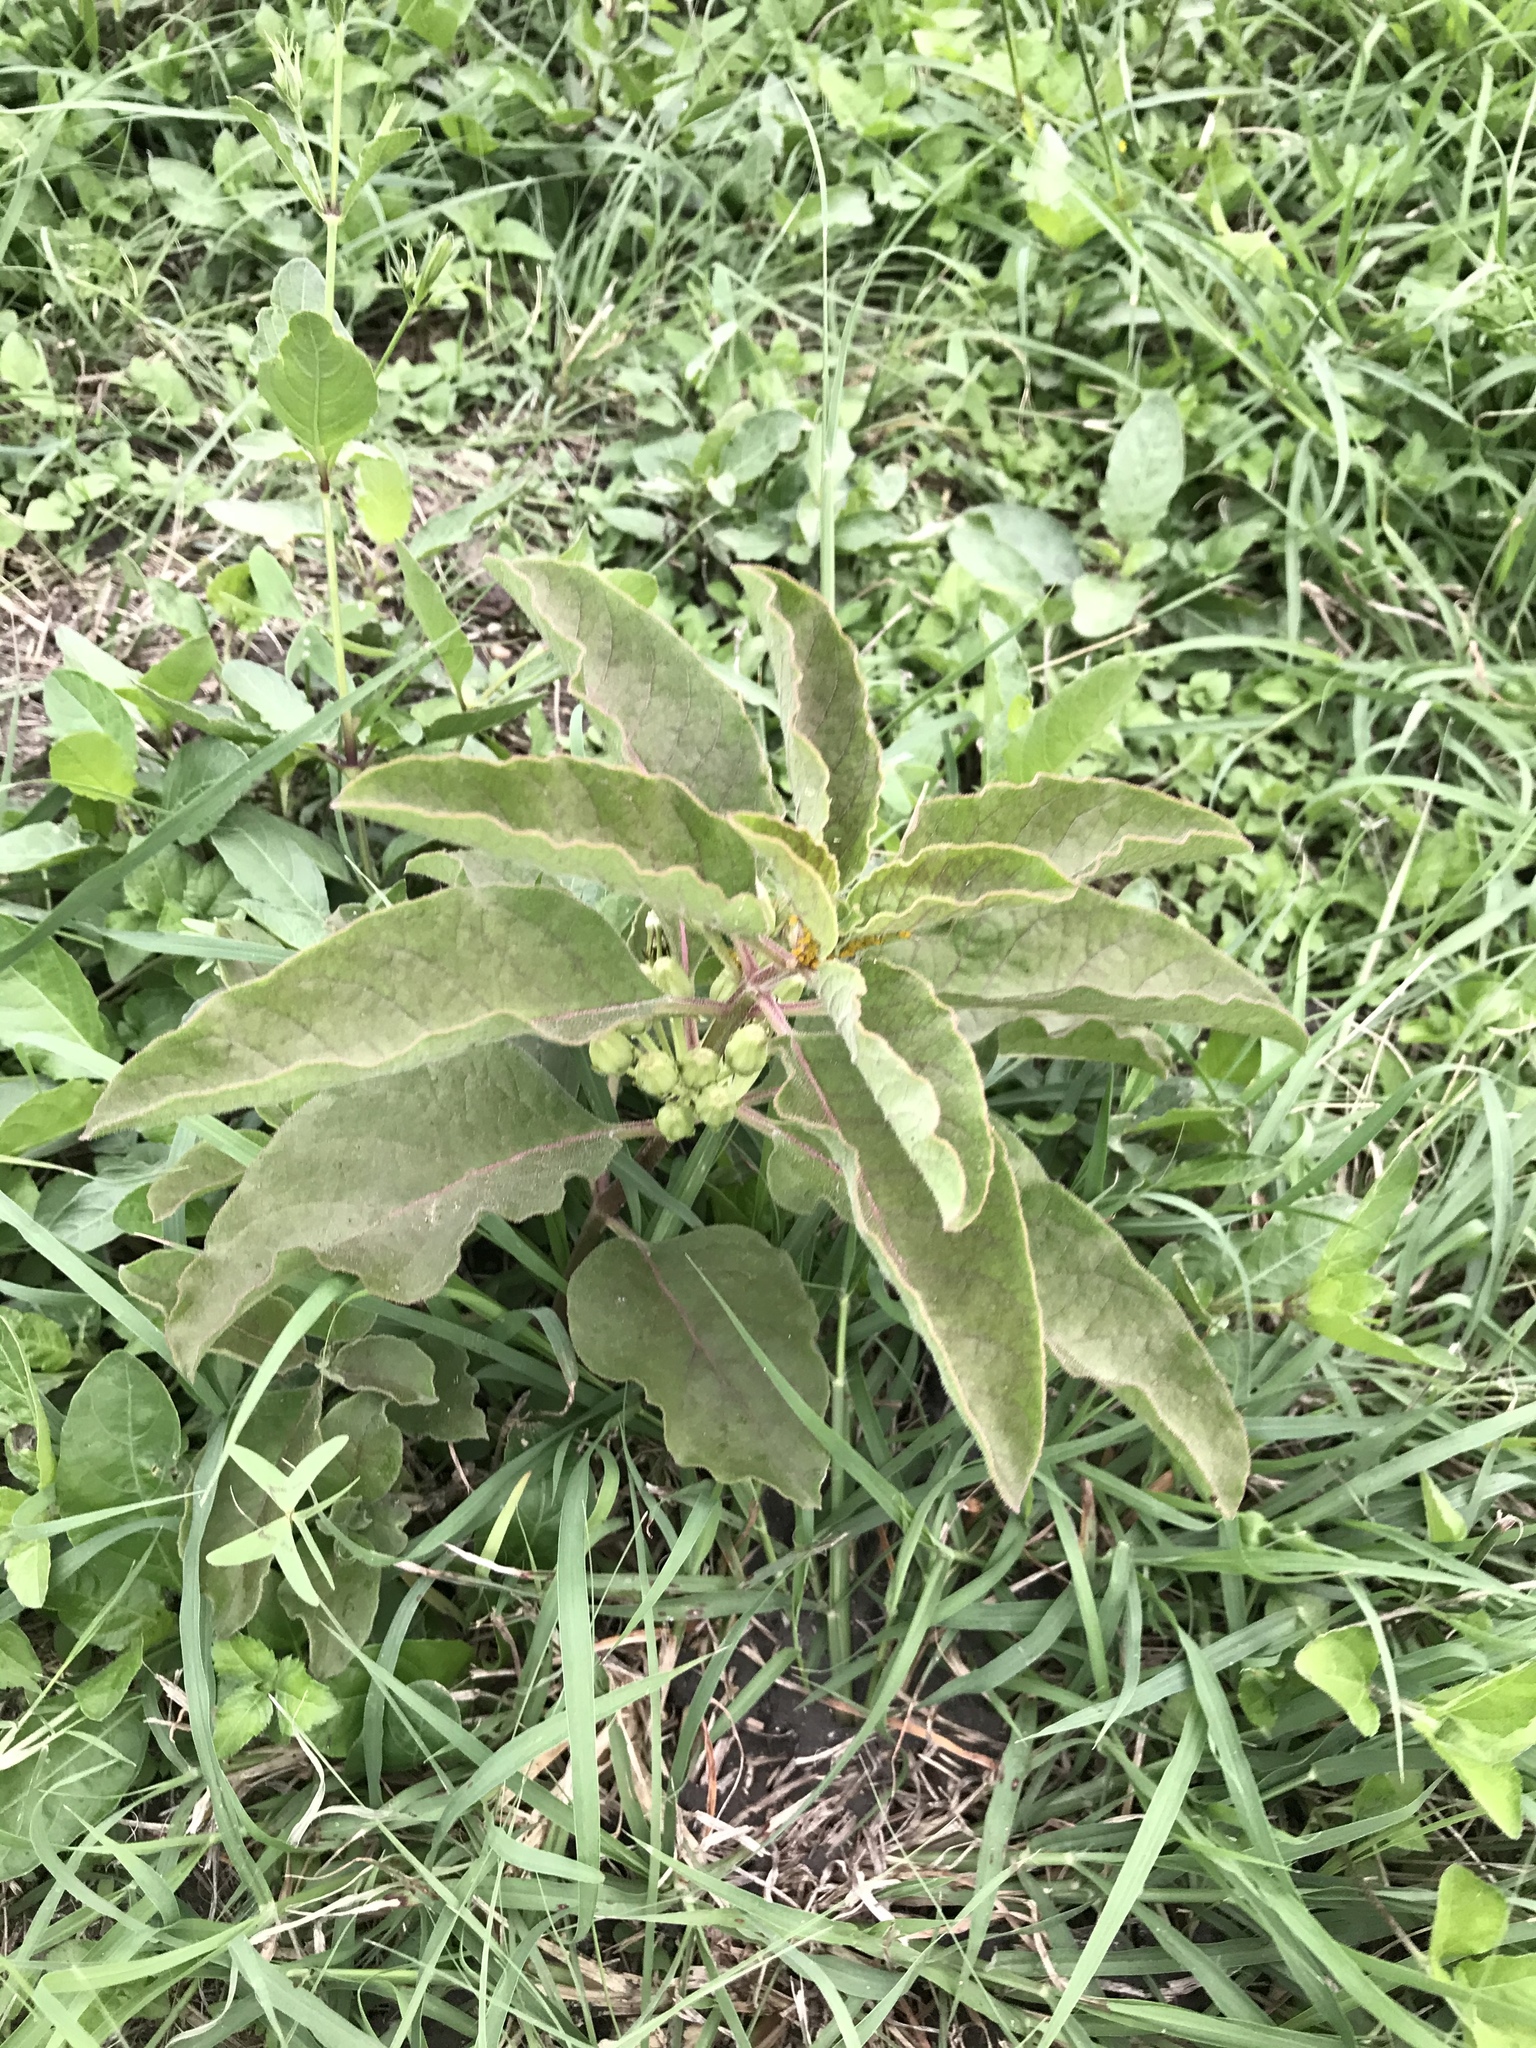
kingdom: Plantae
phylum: Tracheophyta
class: Magnoliopsida
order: Gentianales
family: Apocynaceae
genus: Asclepias
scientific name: Asclepias oenotheroides
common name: Zizotes milkweed
